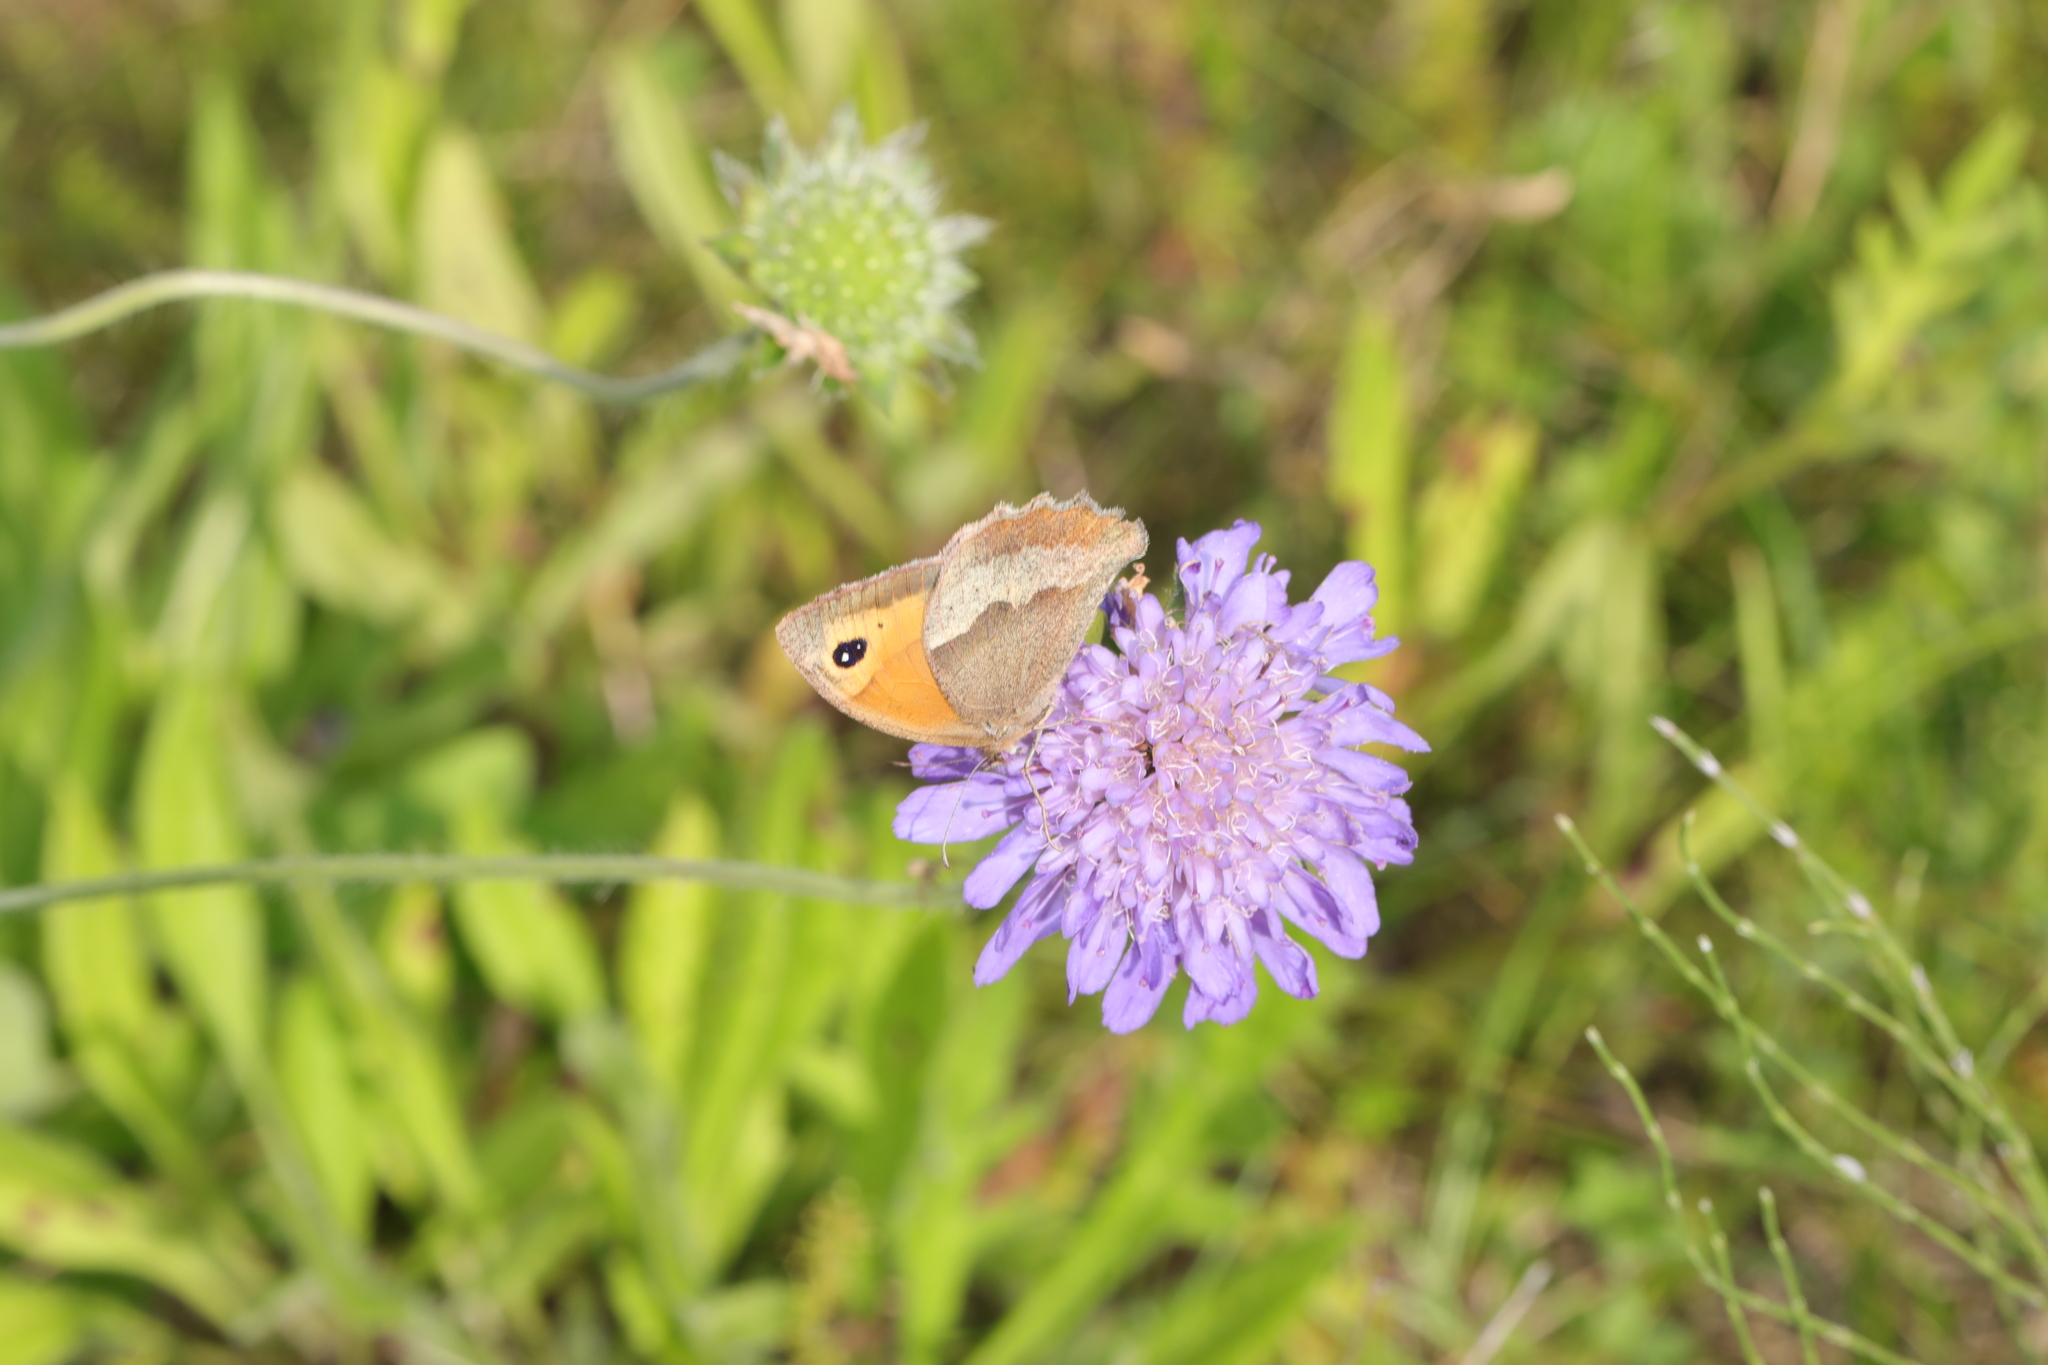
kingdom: Animalia
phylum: Arthropoda
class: Insecta
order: Lepidoptera
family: Nymphalidae
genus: Maniola
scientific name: Maniola jurtina
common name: Meadow brown
